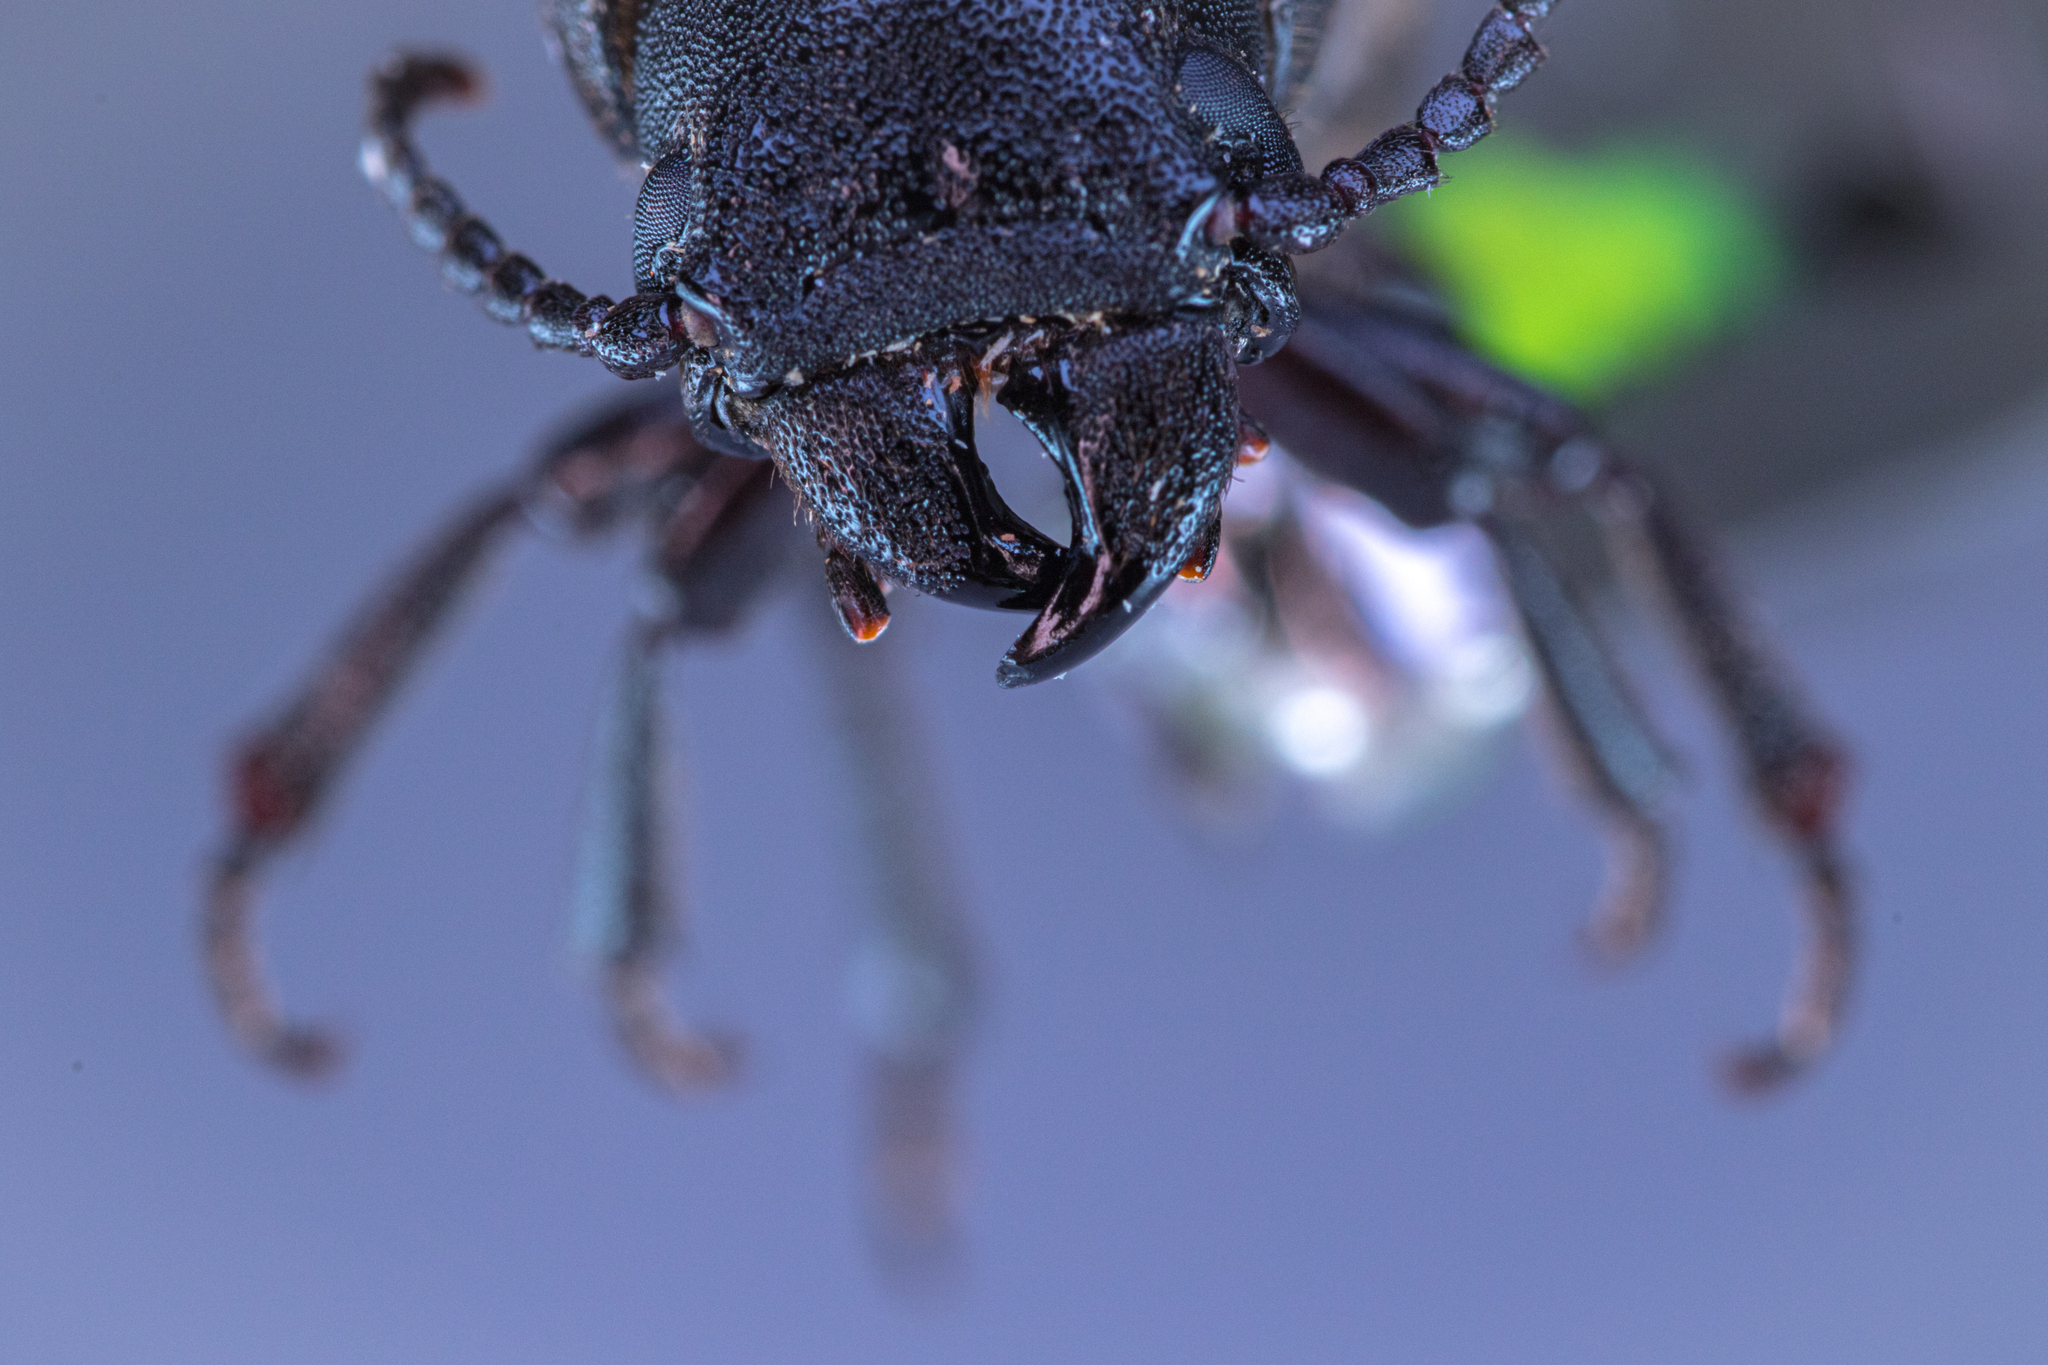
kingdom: Animalia
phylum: Arthropoda
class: Insecta
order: Coleoptera
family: Cerambycidae
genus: Spondylis
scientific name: Spondylis buprestoides
